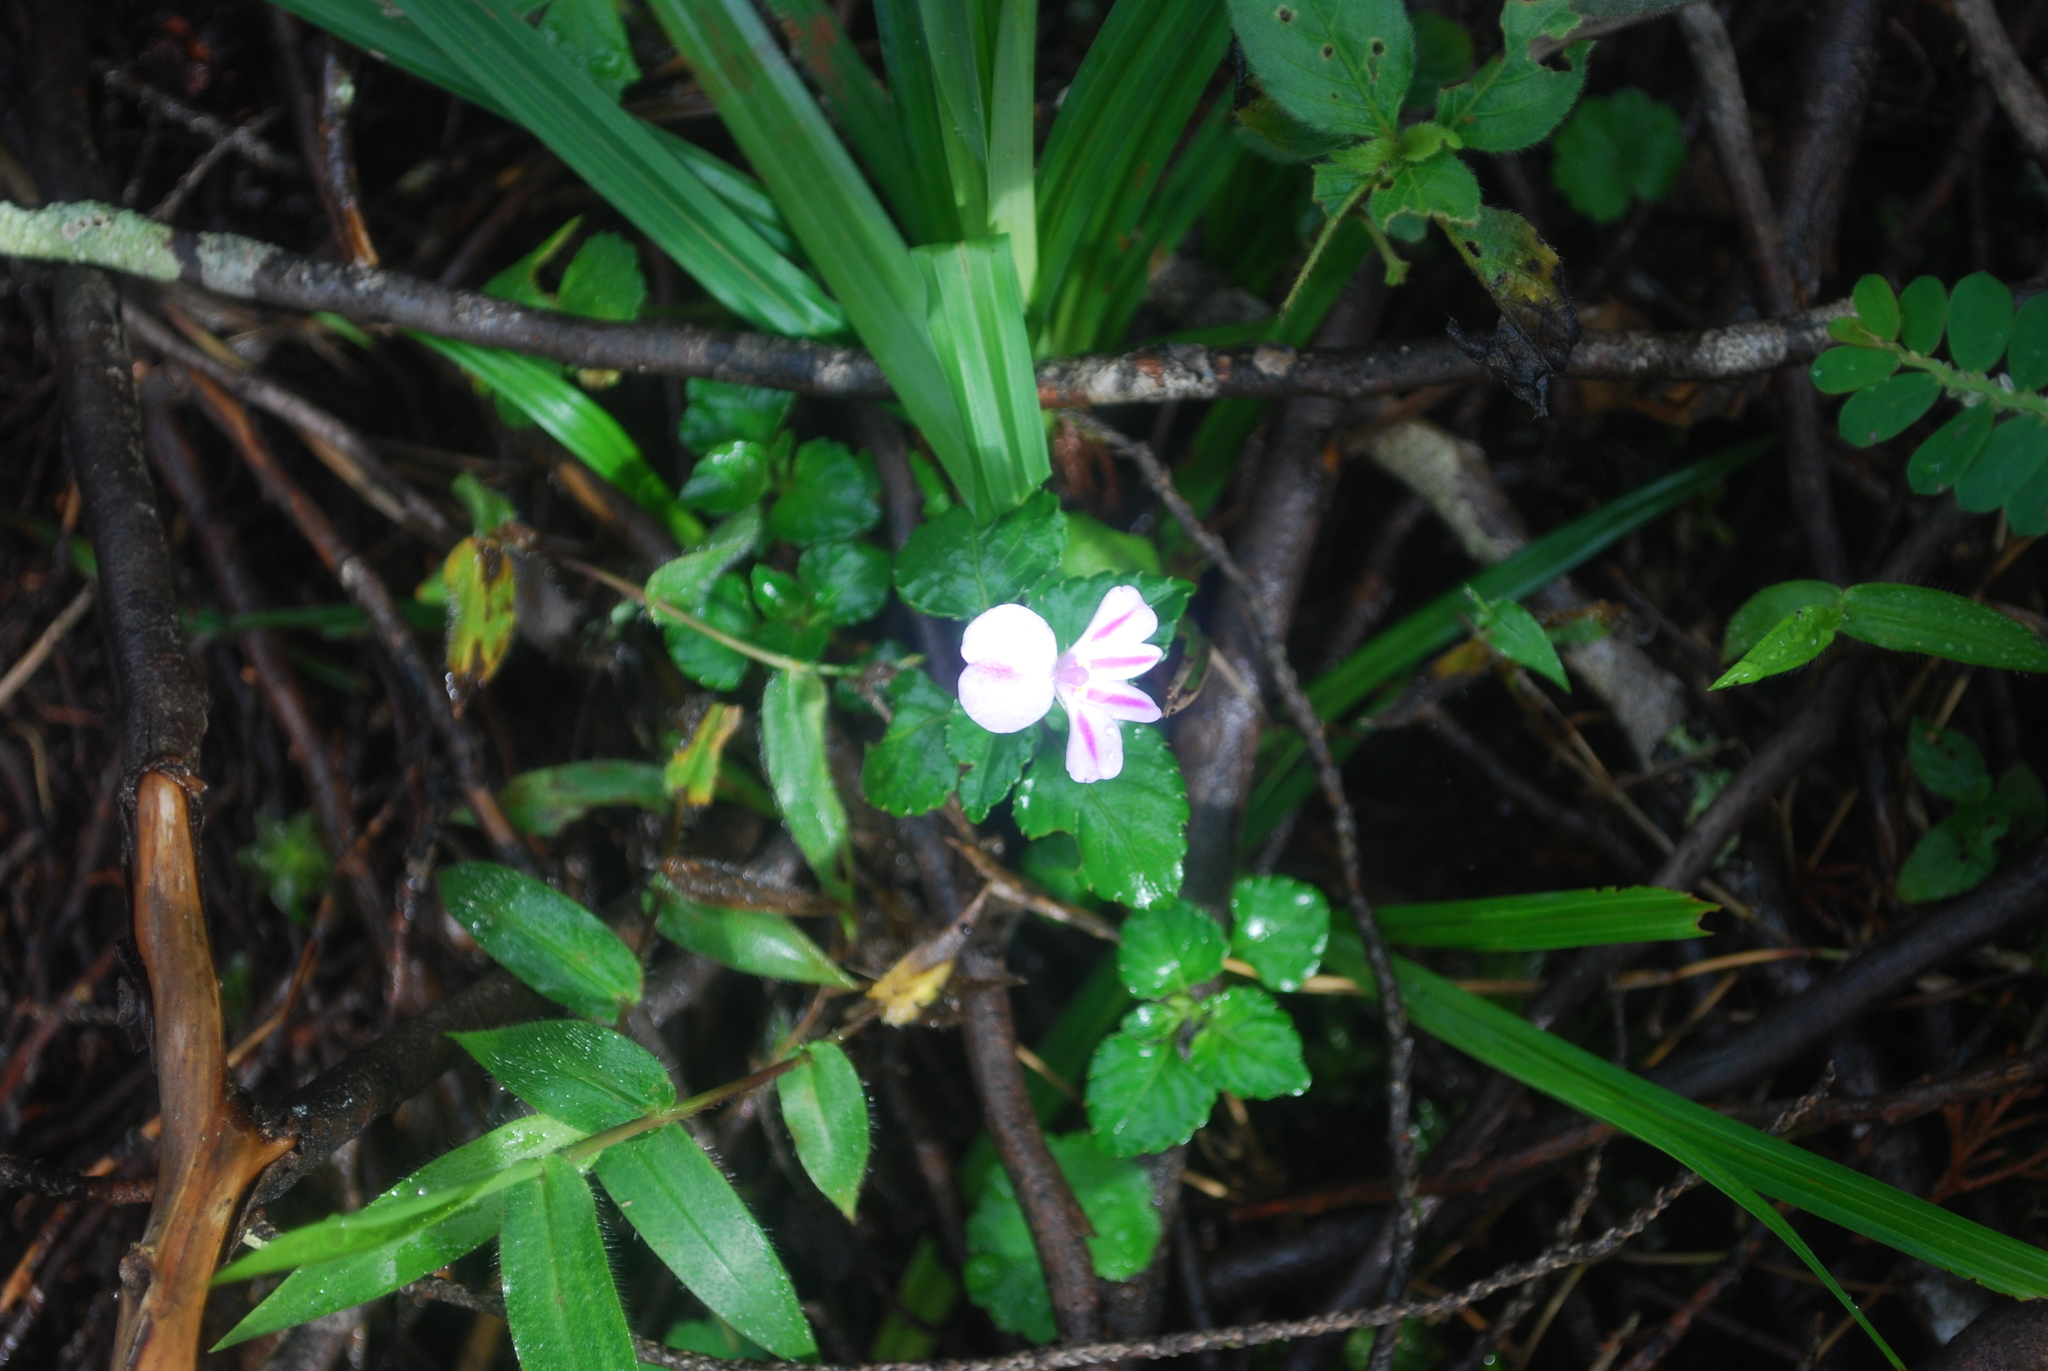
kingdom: Plantae
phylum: Tracheophyta
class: Magnoliopsida
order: Ericales
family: Balsaminaceae
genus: Impatiens
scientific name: Impatiens pseudoviola
